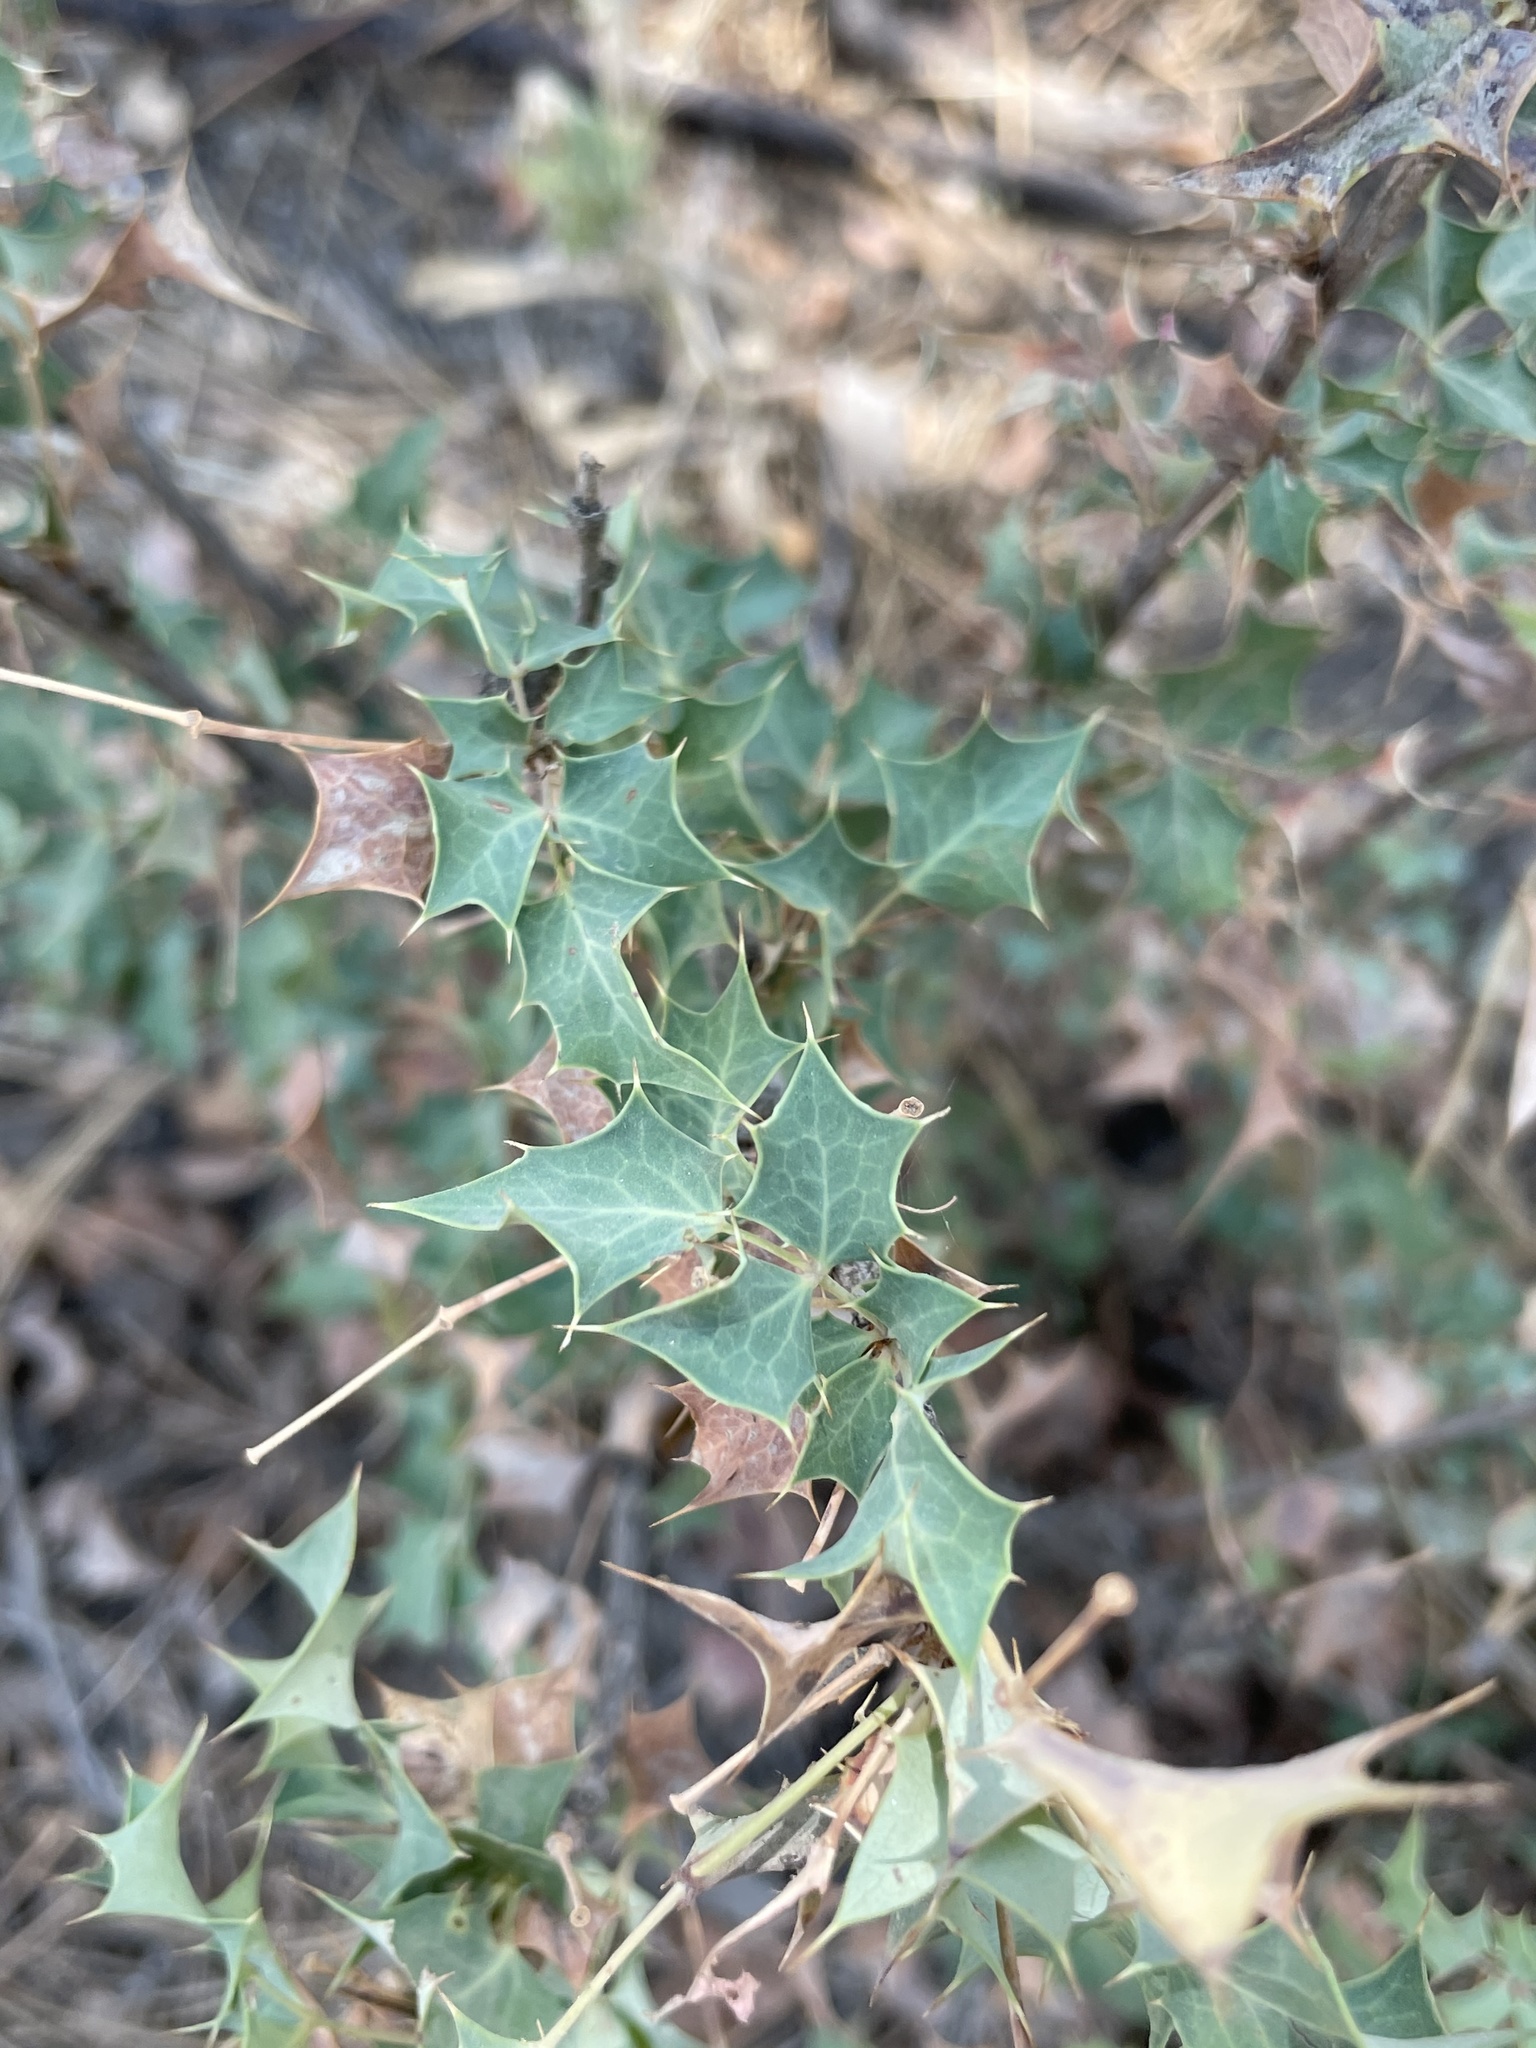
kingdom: Plantae
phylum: Tracheophyta
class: Magnoliopsida
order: Ranunculales
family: Berberidaceae
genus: Alloberberis
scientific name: Alloberberis fremontii
